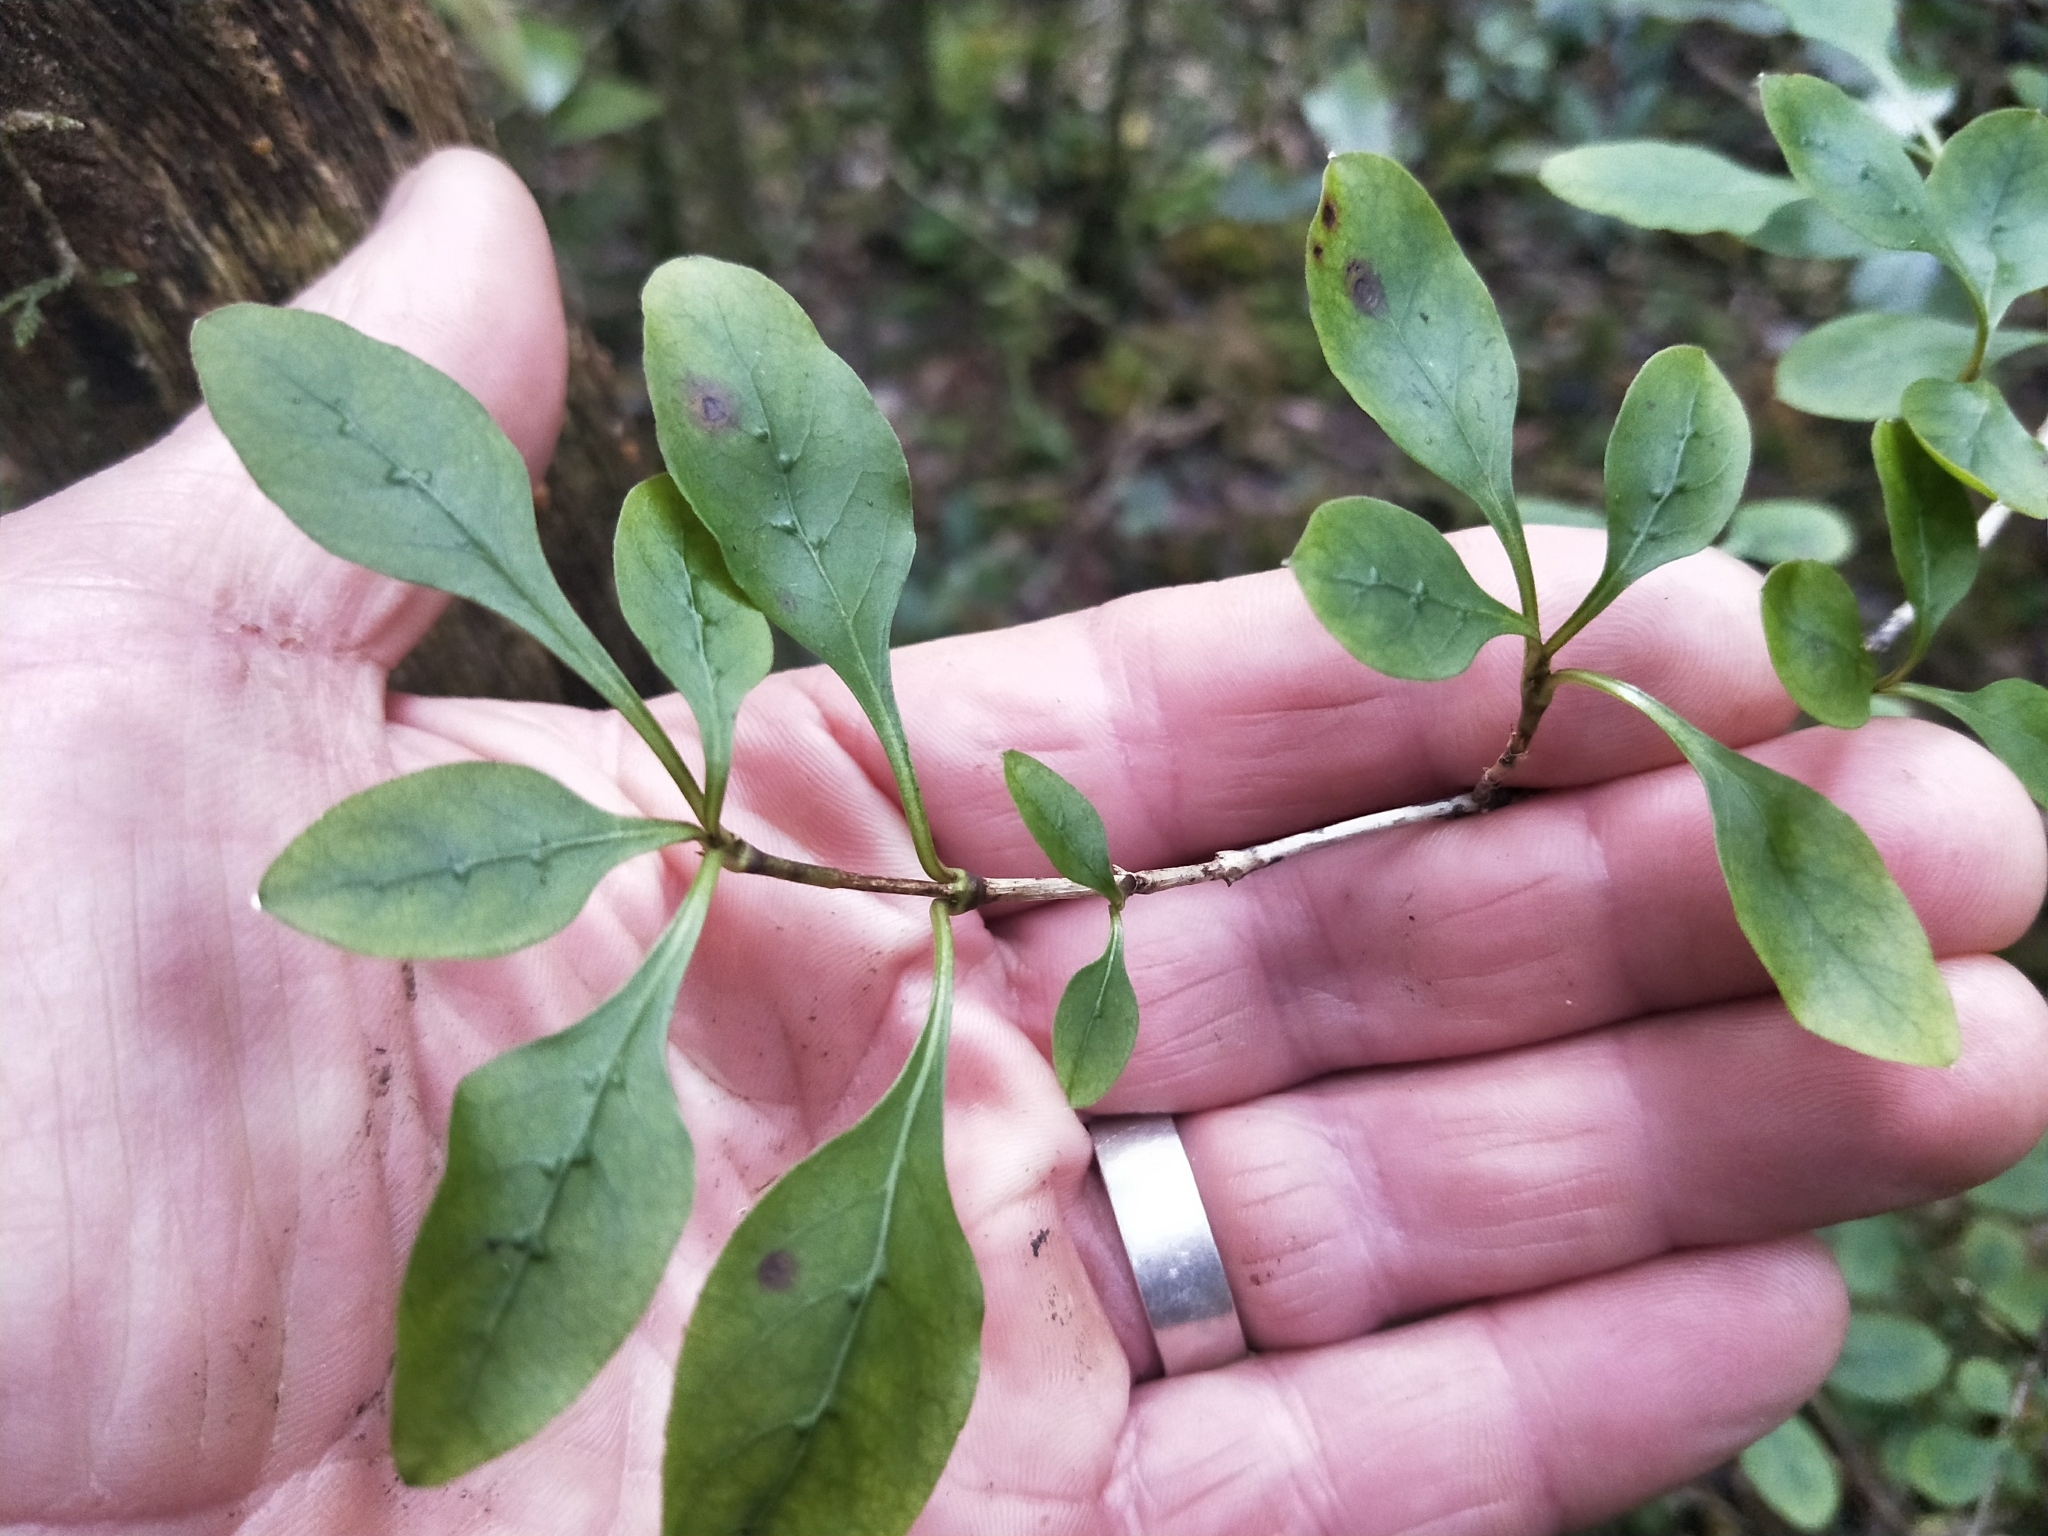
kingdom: Plantae
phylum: Tracheophyta
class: Magnoliopsida
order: Gentianales
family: Rubiaceae
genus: Coprosma
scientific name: Coprosma foetidissima
